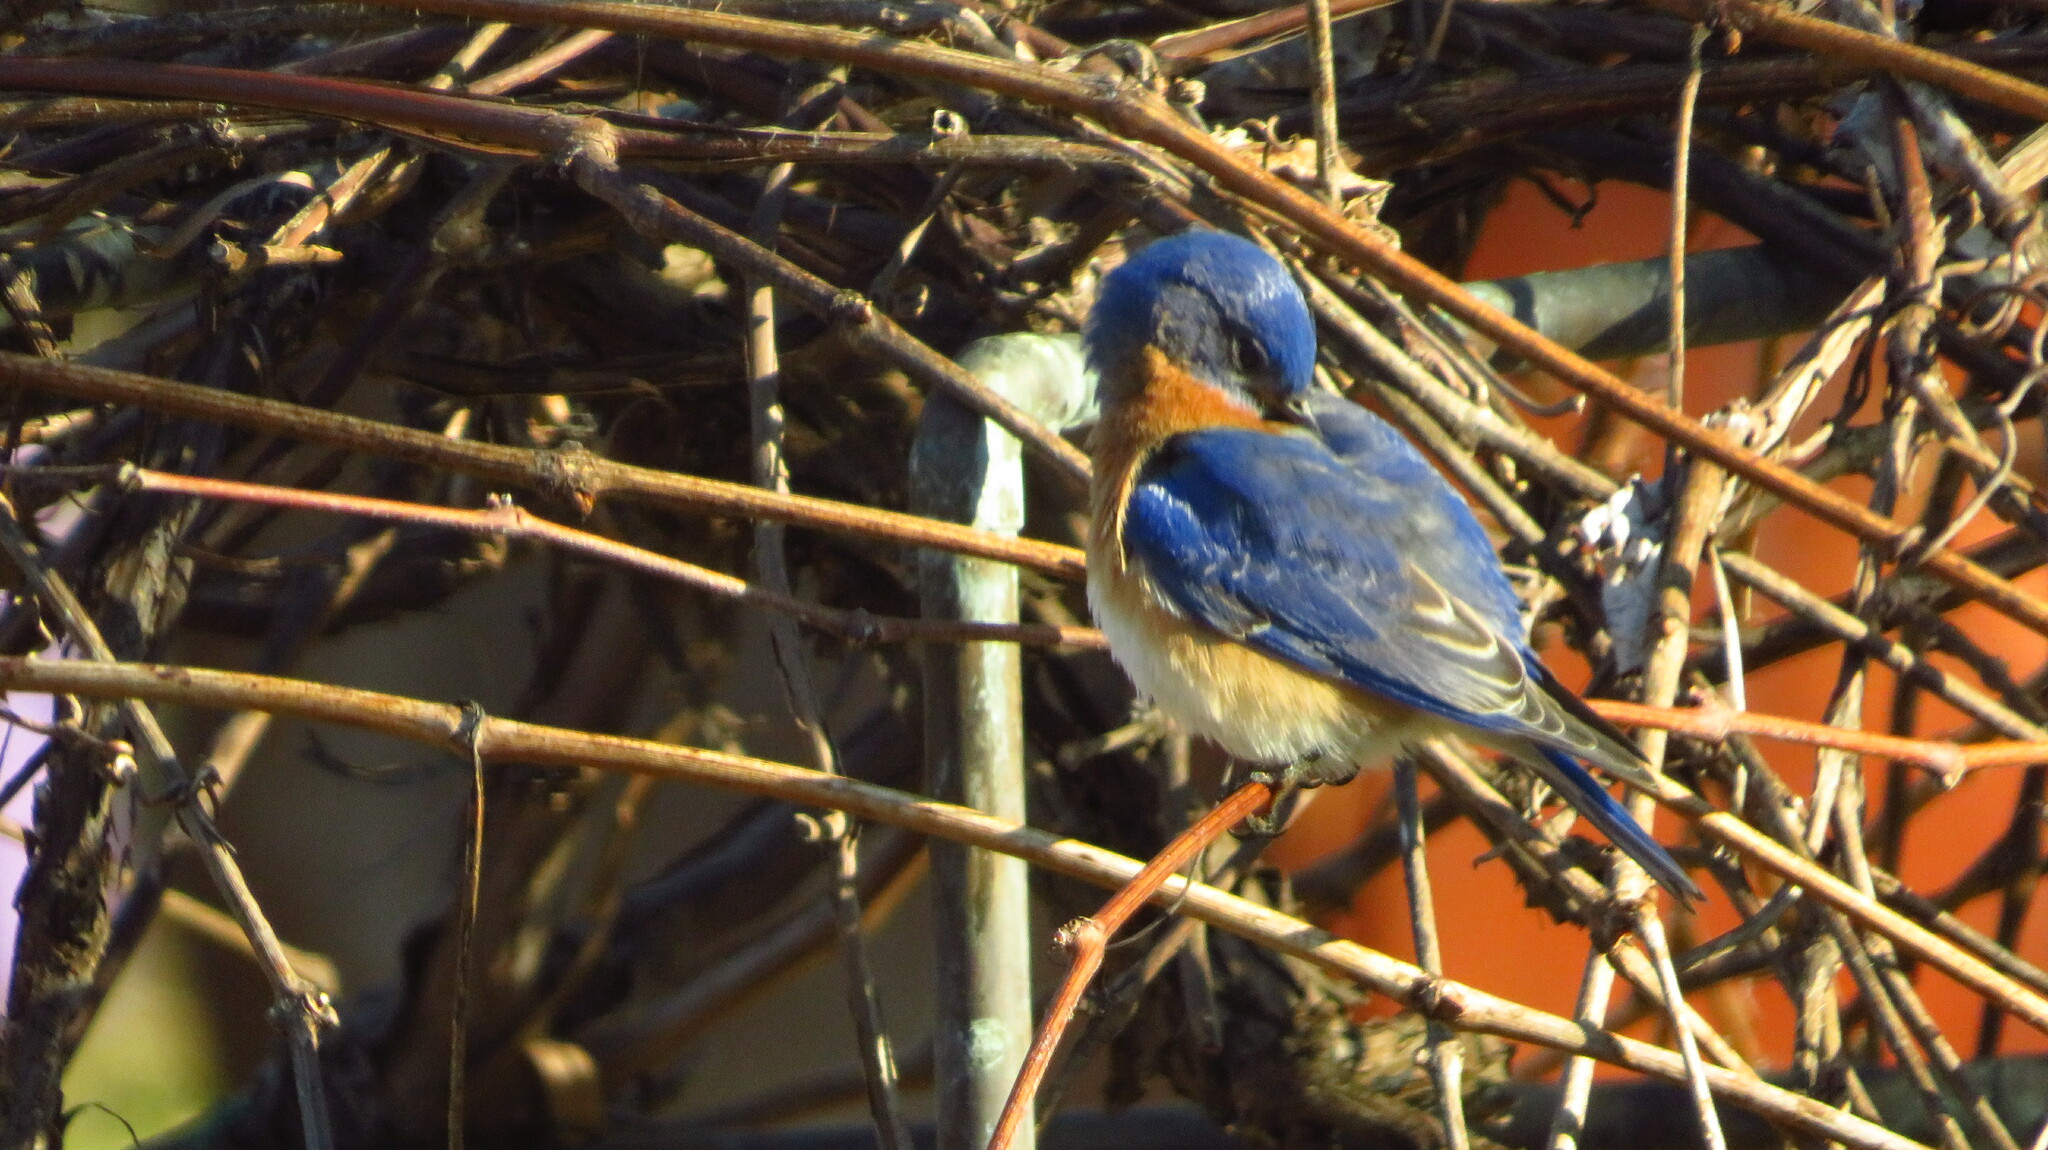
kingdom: Animalia
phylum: Chordata
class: Aves
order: Passeriformes
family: Turdidae
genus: Sialia
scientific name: Sialia sialis
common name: Eastern bluebird
